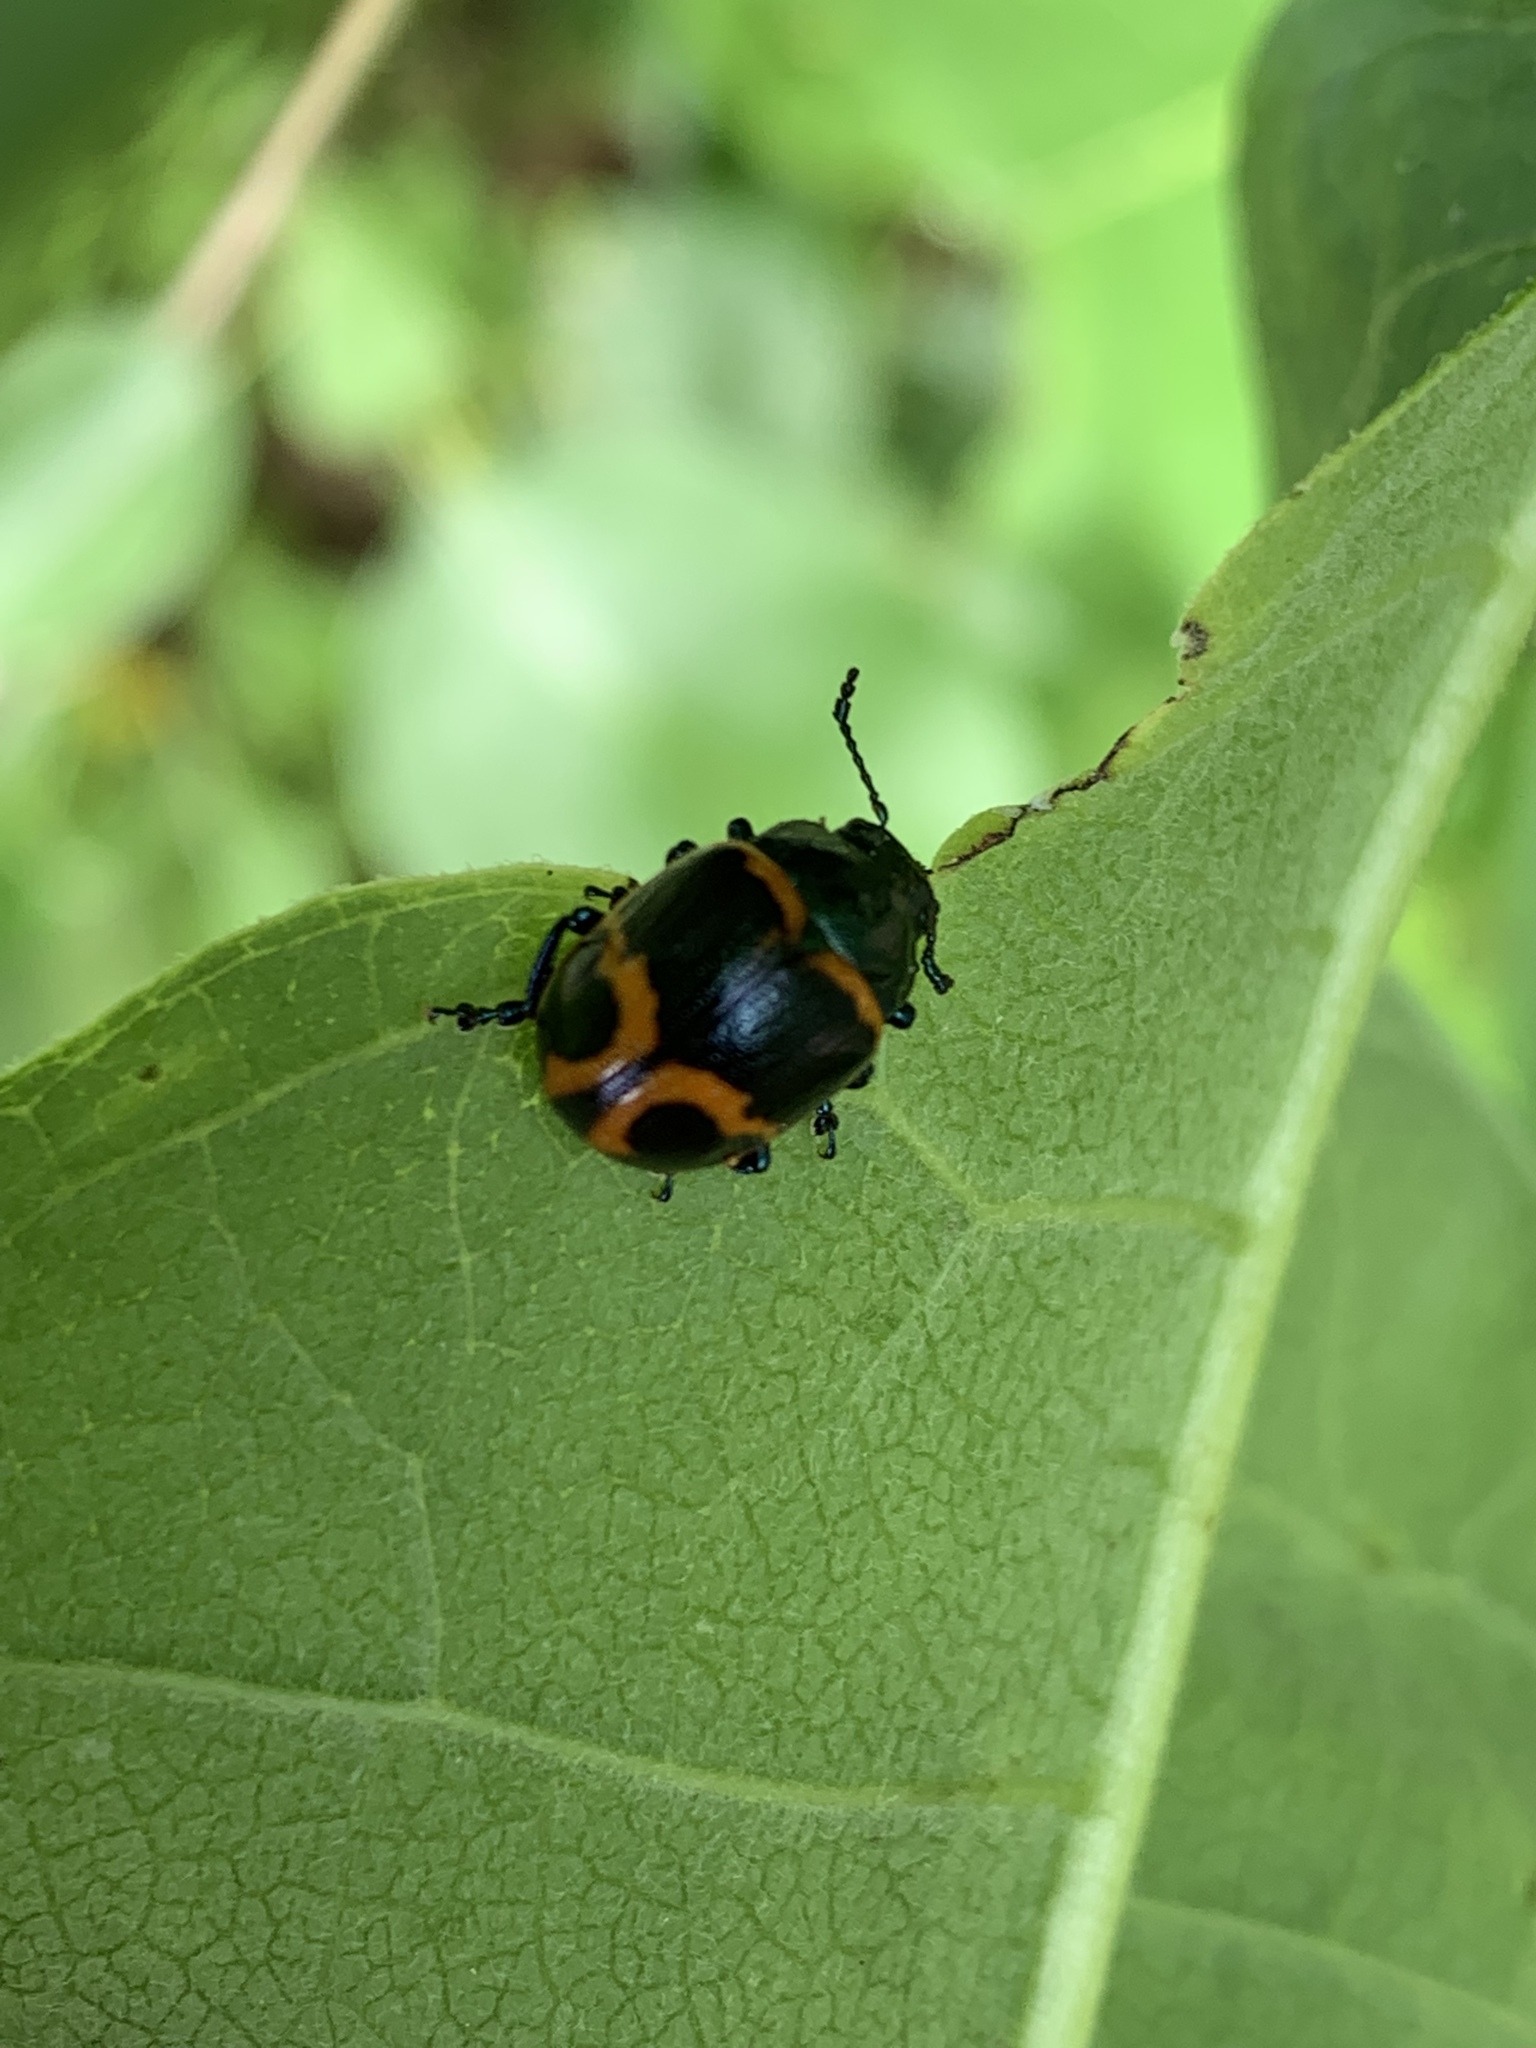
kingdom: Animalia
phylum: Arthropoda
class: Insecta
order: Coleoptera
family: Chrysomelidae
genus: Labidomera
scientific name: Labidomera clivicollis
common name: Swamp milkweed leaf beetle
